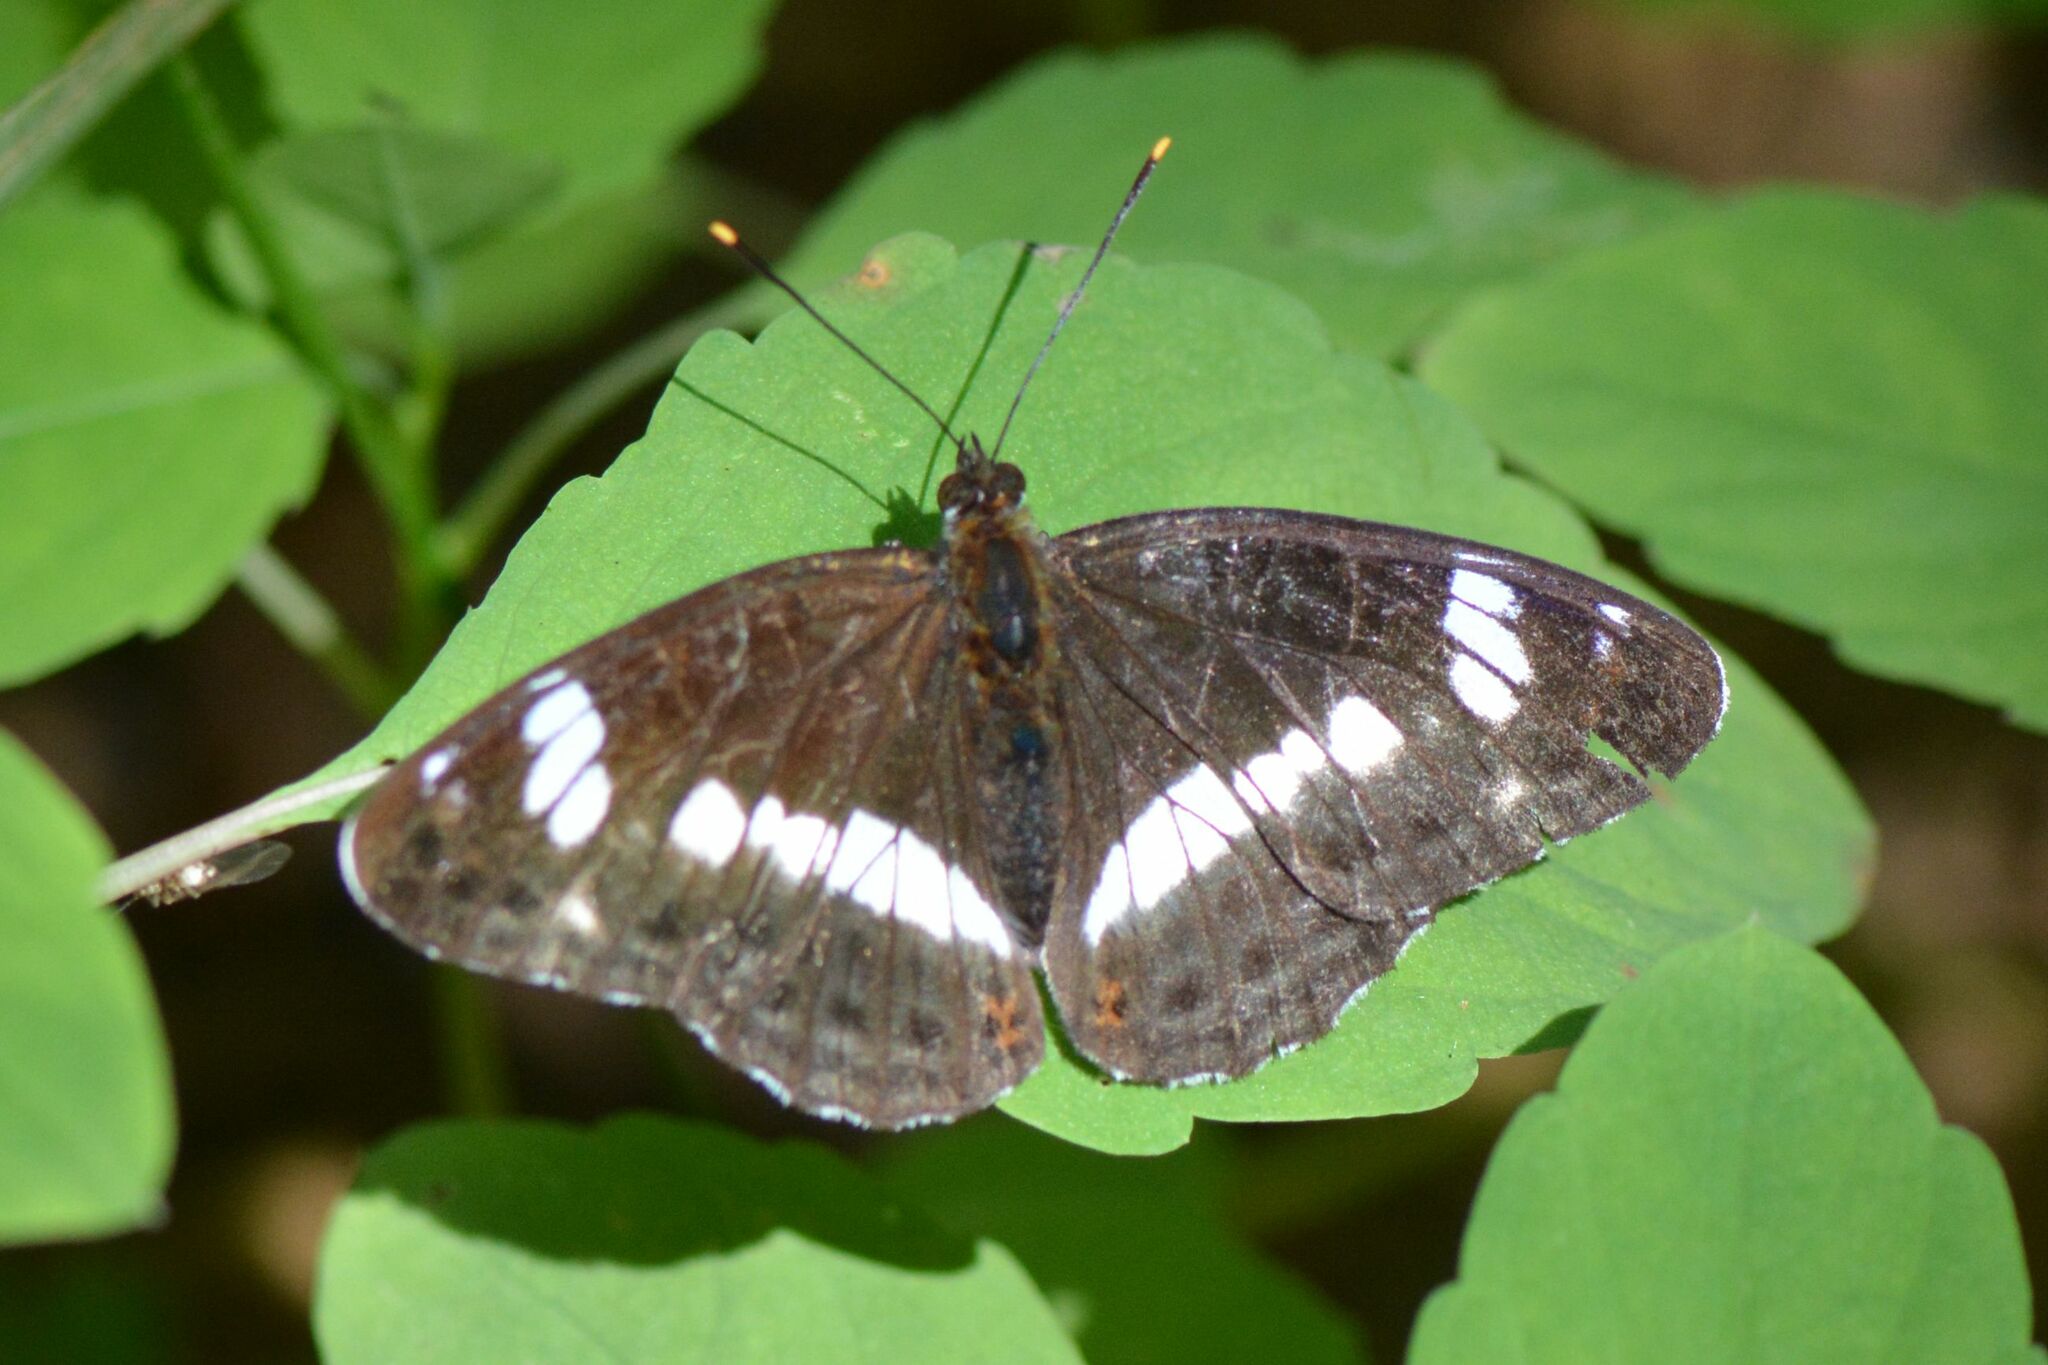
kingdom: Animalia
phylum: Arthropoda
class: Insecta
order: Lepidoptera
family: Nymphalidae
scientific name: Nymphalidae
